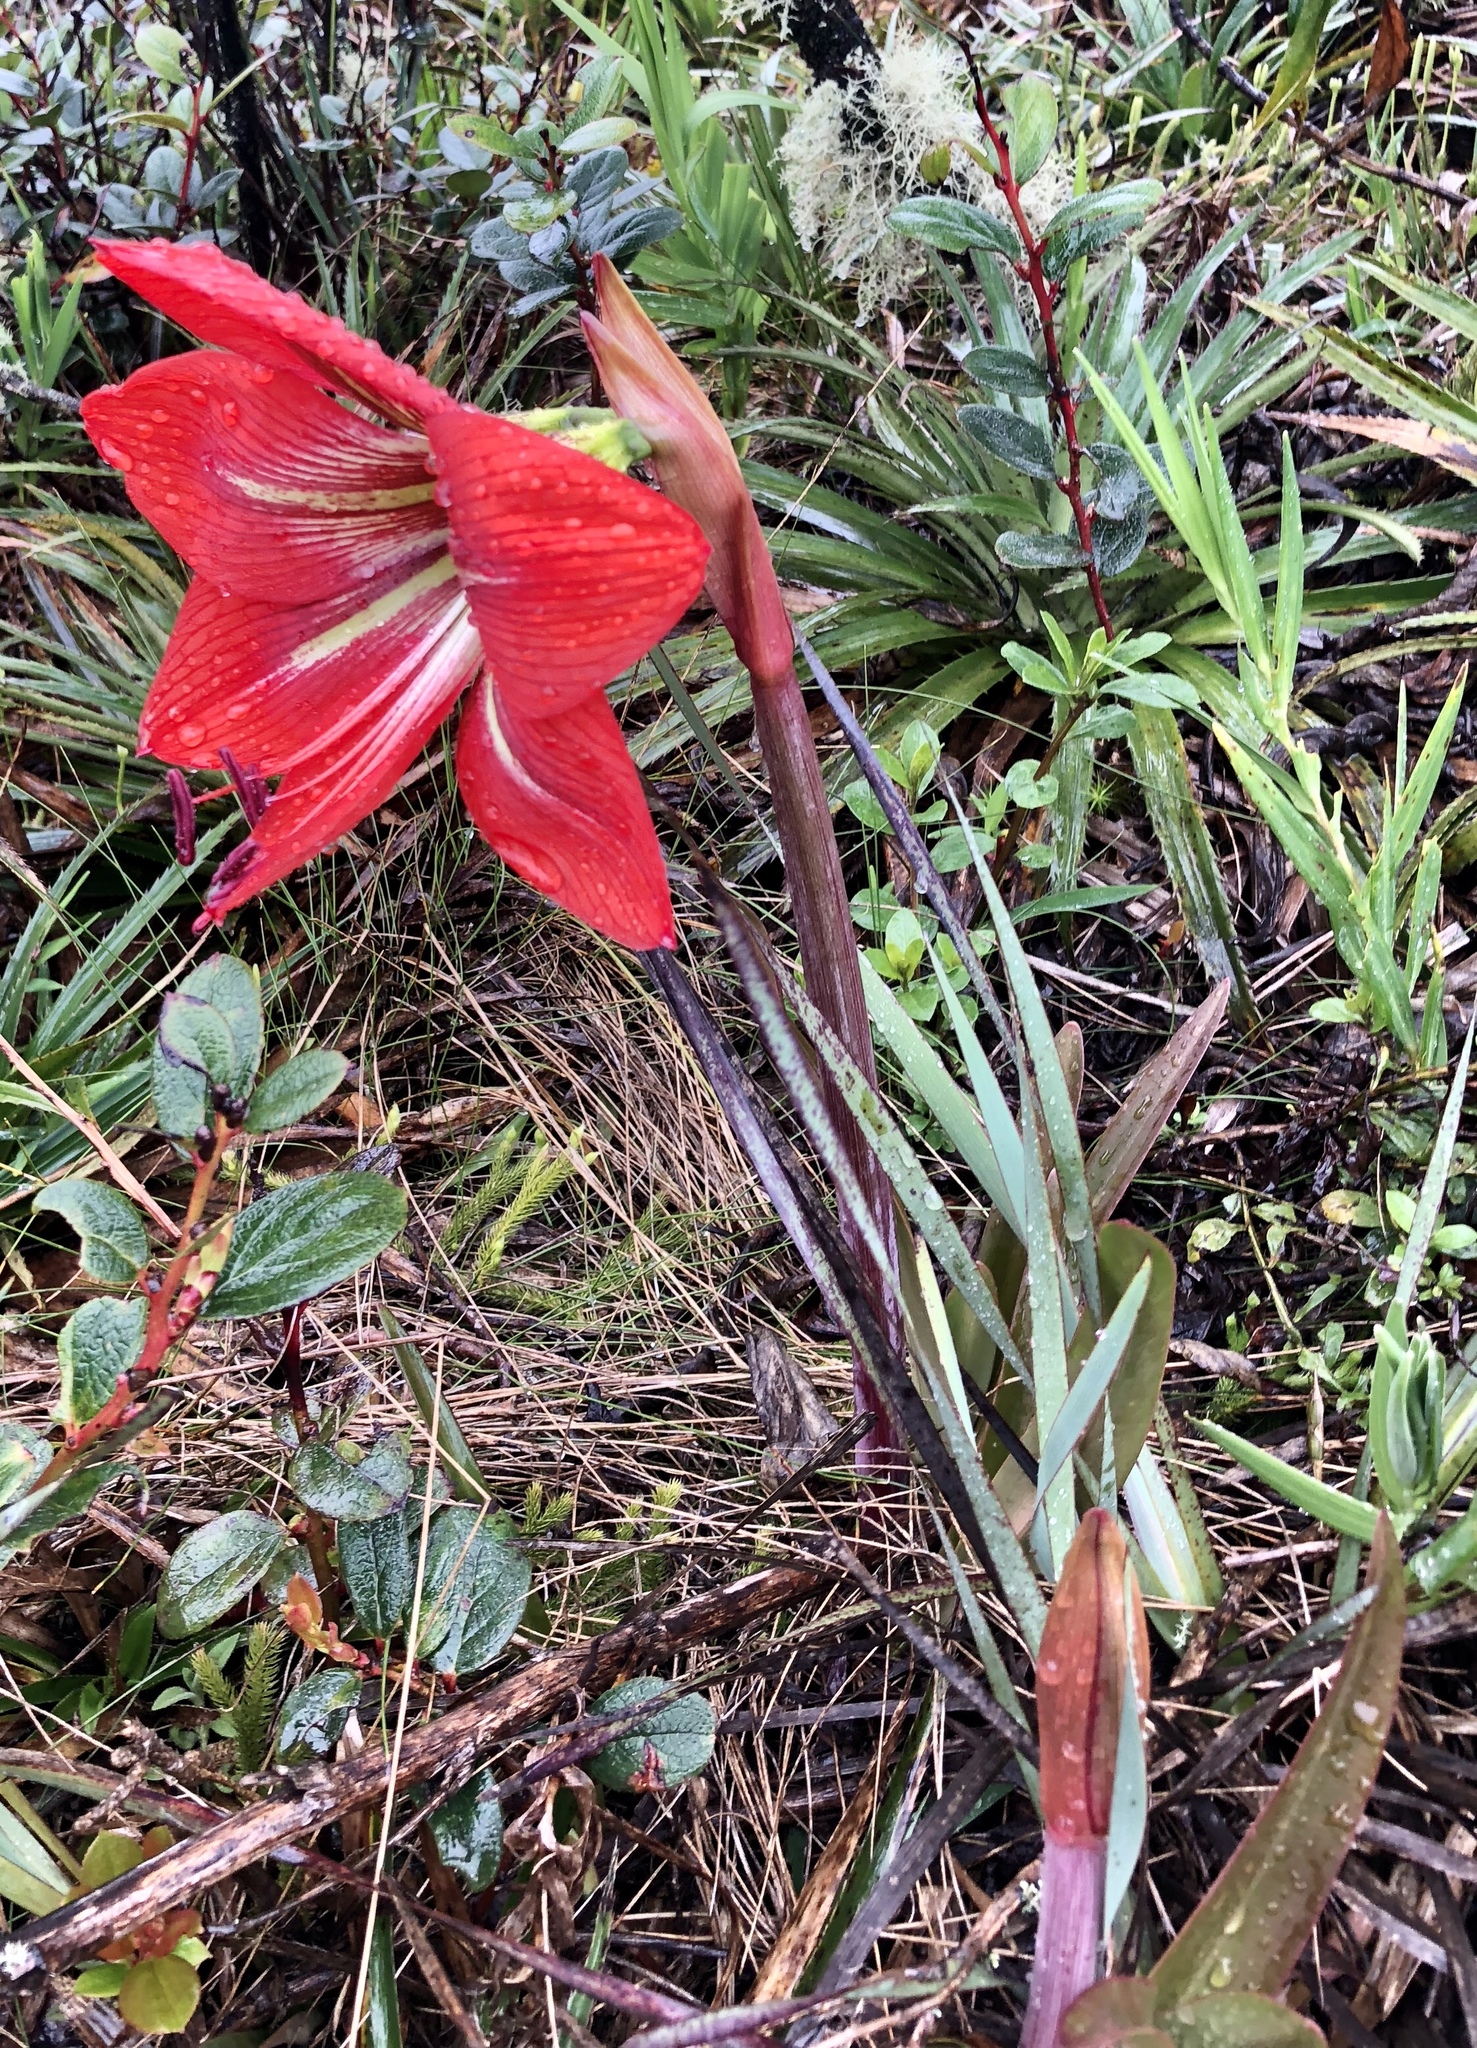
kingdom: Plantae
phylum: Tracheophyta
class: Liliopsida
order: Asparagales
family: Amaryllidaceae
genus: Hippeastrum
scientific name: Hippeastrum morelianum
